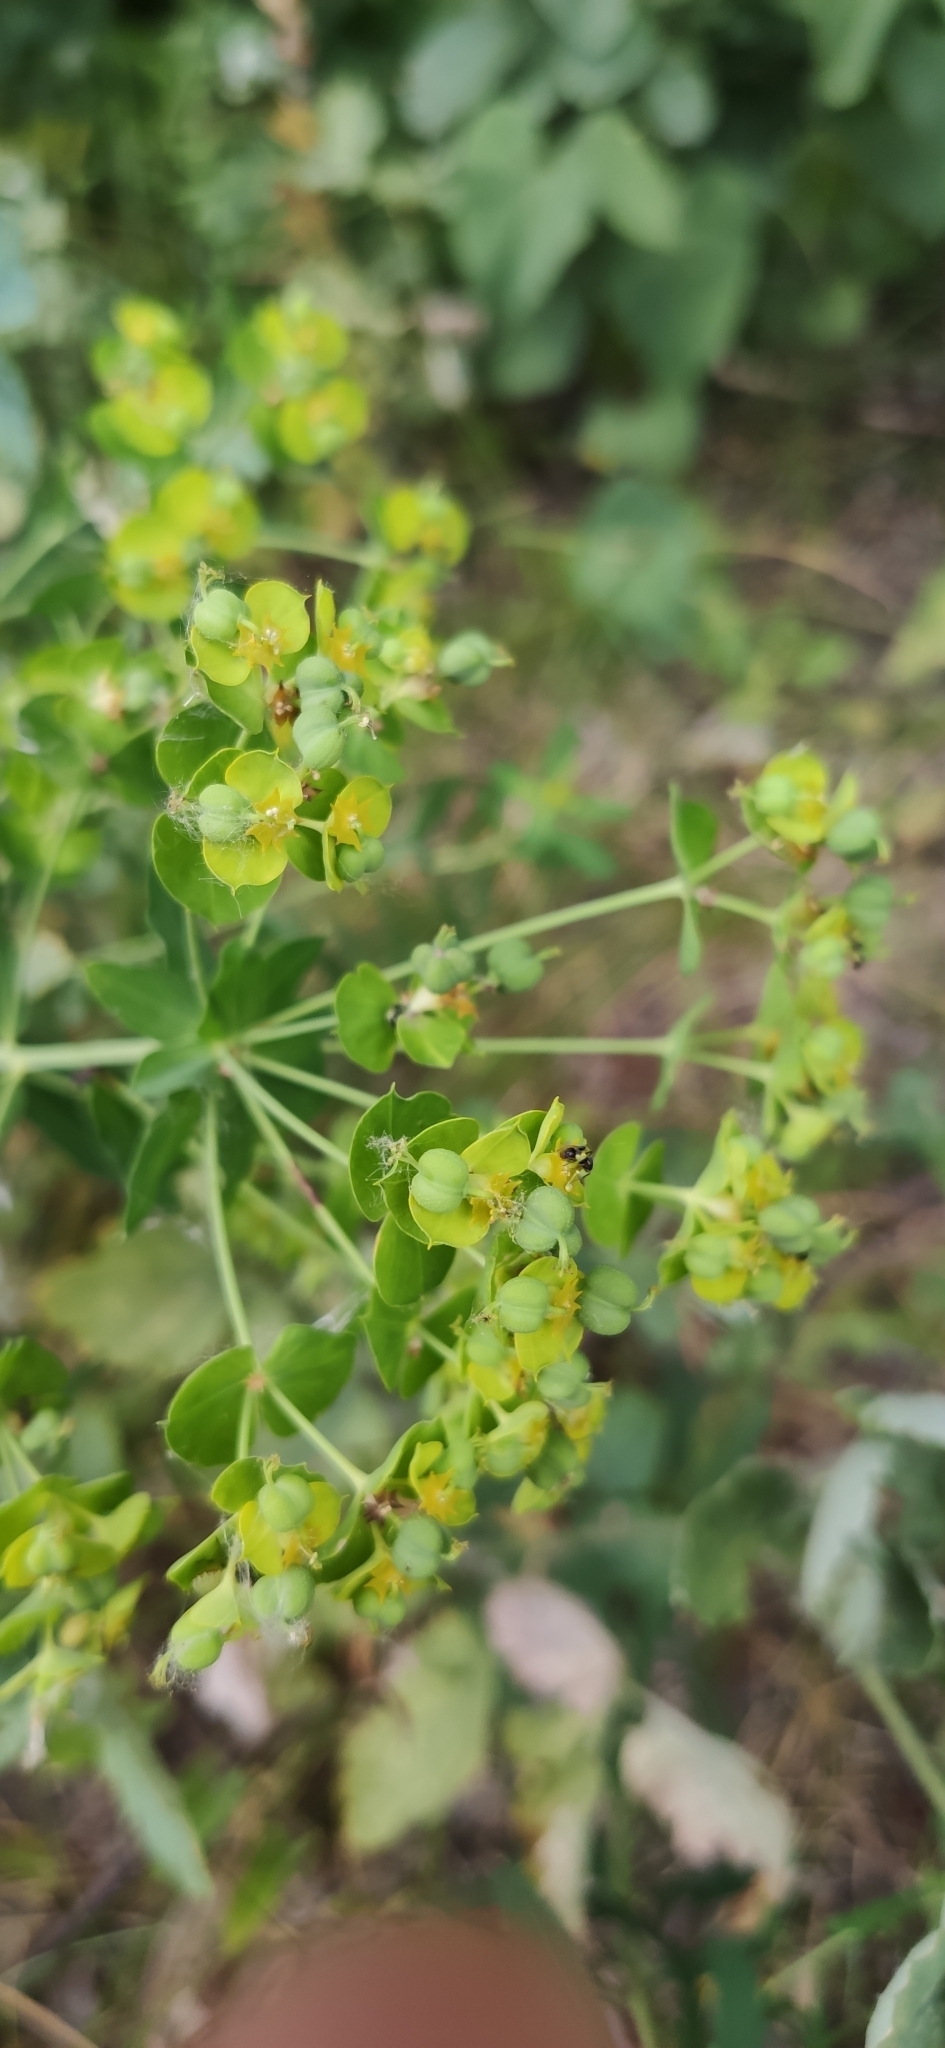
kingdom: Plantae
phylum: Tracheophyta
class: Magnoliopsida
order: Malpighiales
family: Euphorbiaceae
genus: Euphorbia
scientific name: Euphorbia virgata
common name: Leafy spurge
